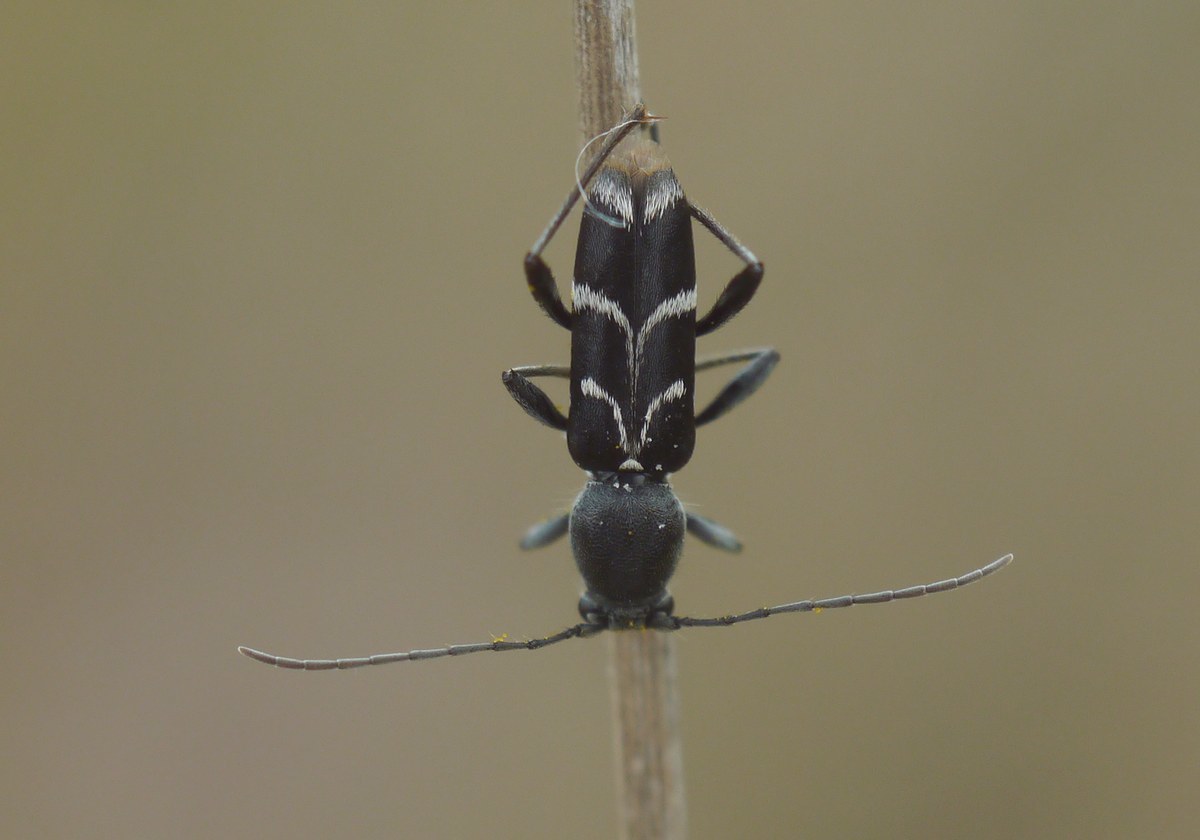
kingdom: Animalia
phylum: Arthropoda
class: Insecta
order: Coleoptera
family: Cerambycidae
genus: Chlorophorus
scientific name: Chlorophorus sartor
